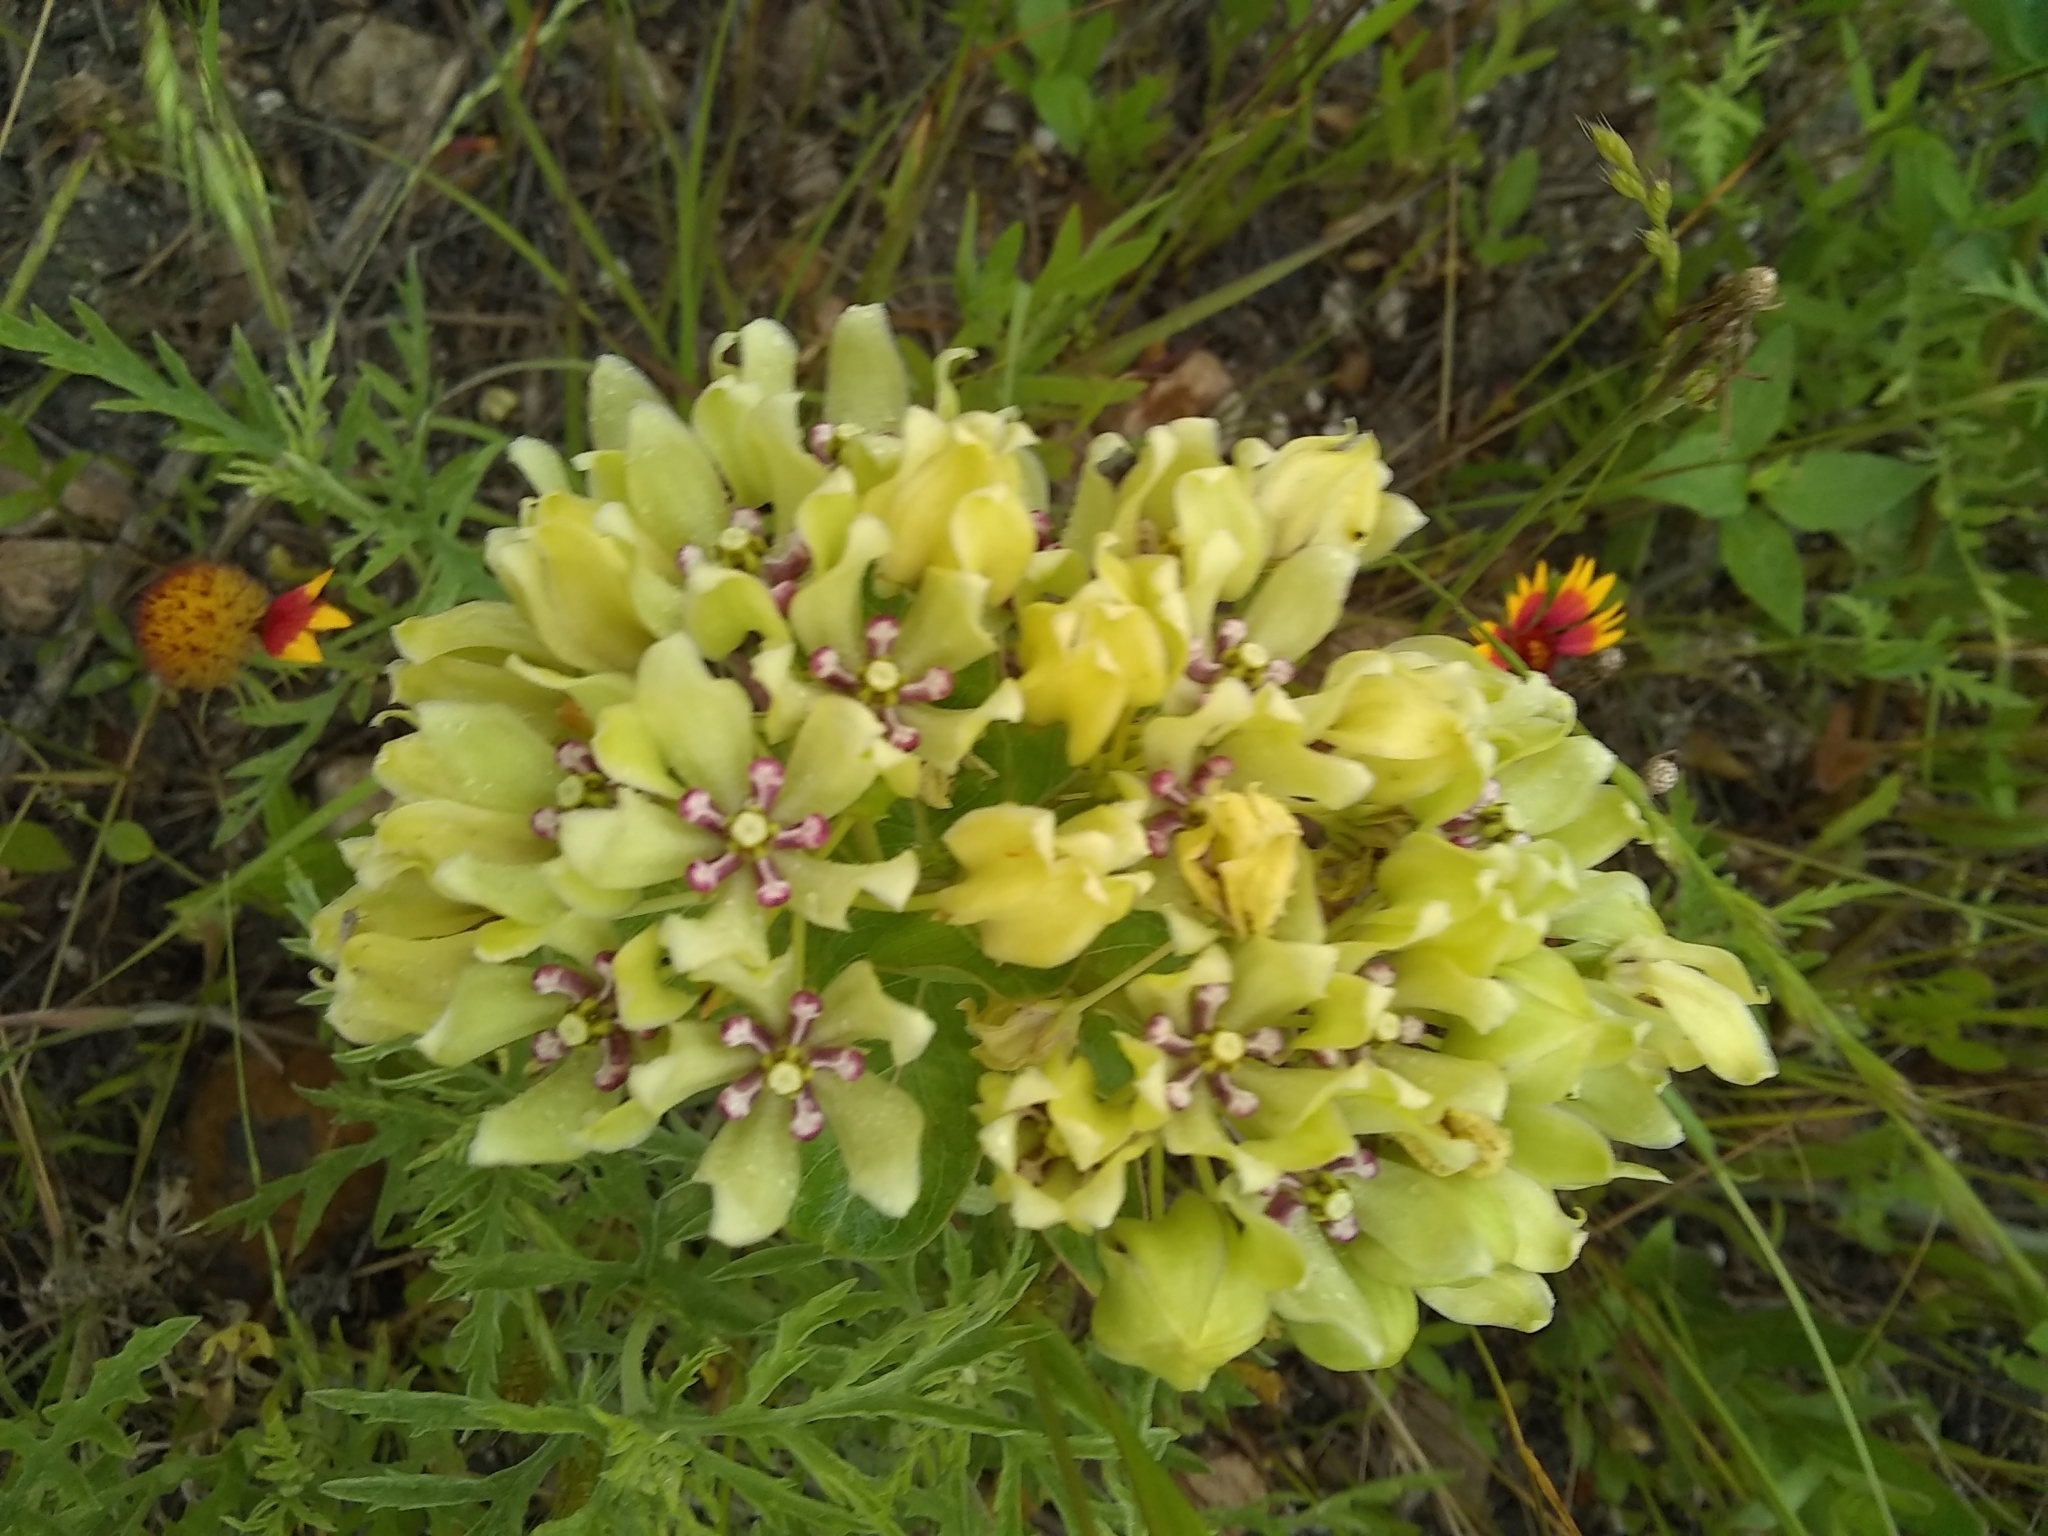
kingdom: Plantae
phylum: Tracheophyta
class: Magnoliopsida
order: Gentianales
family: Apocynaceae
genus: Asclepias
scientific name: Asclepias viridis
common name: Antelope-horns
